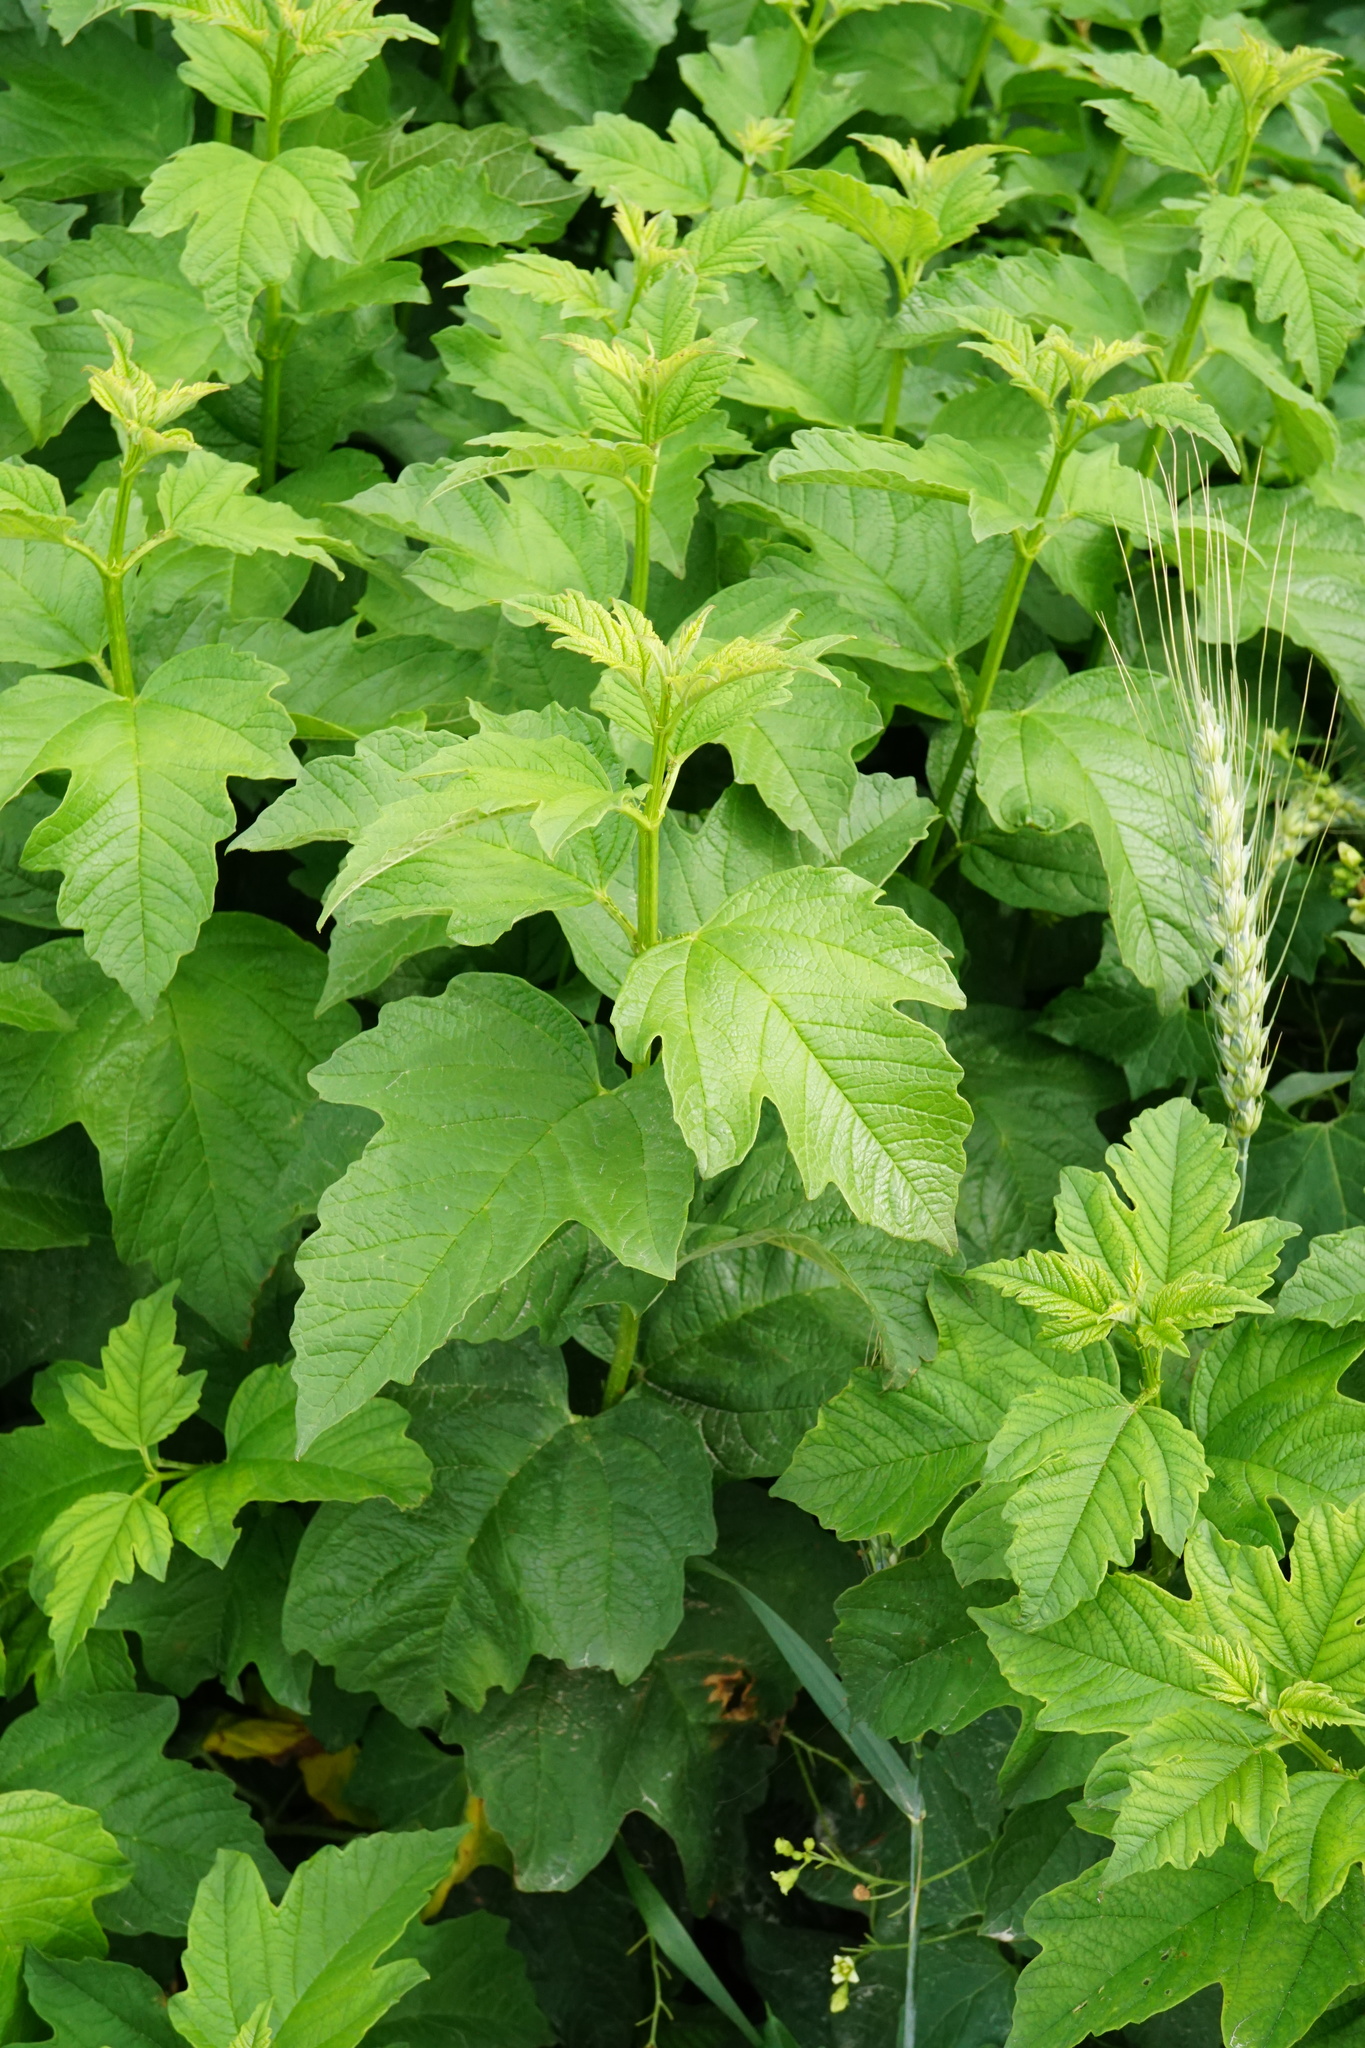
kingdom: Plantae
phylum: Tracheophyta
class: Magnoliopsida
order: Dipsacales
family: Viburnaceae
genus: Viburnum
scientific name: Viburnum opulus
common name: Guelder-rose
